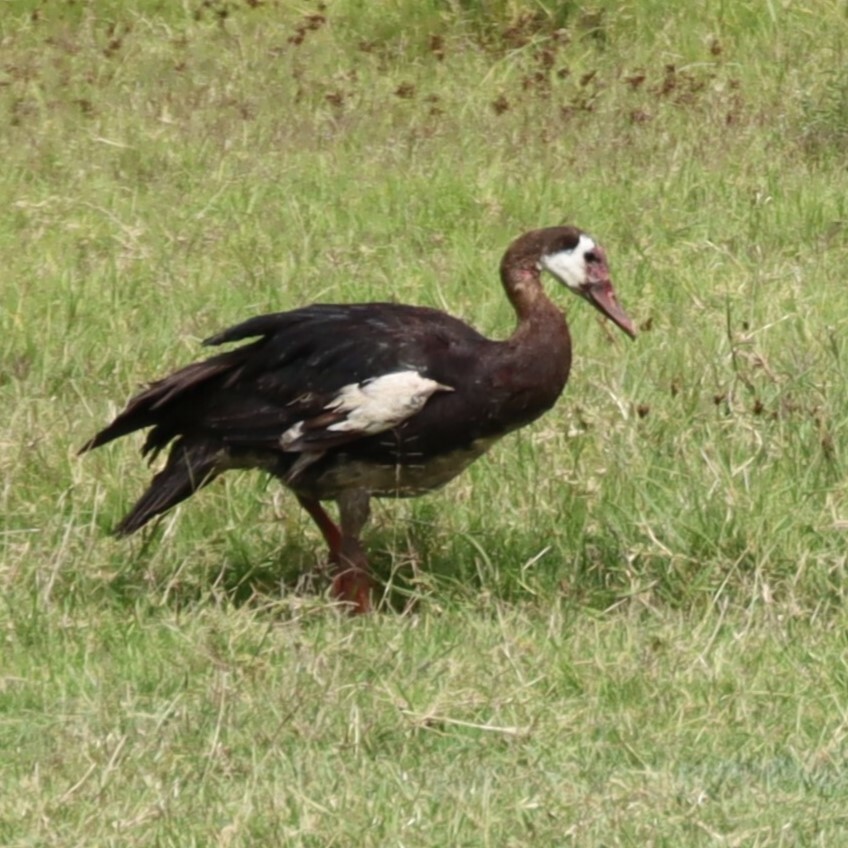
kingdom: Animalia
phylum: Chordata
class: Aves
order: Anseriformes
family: Anatidae
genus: Plectropterus
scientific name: Plectropterus gambensis
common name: Spur-winged goose
